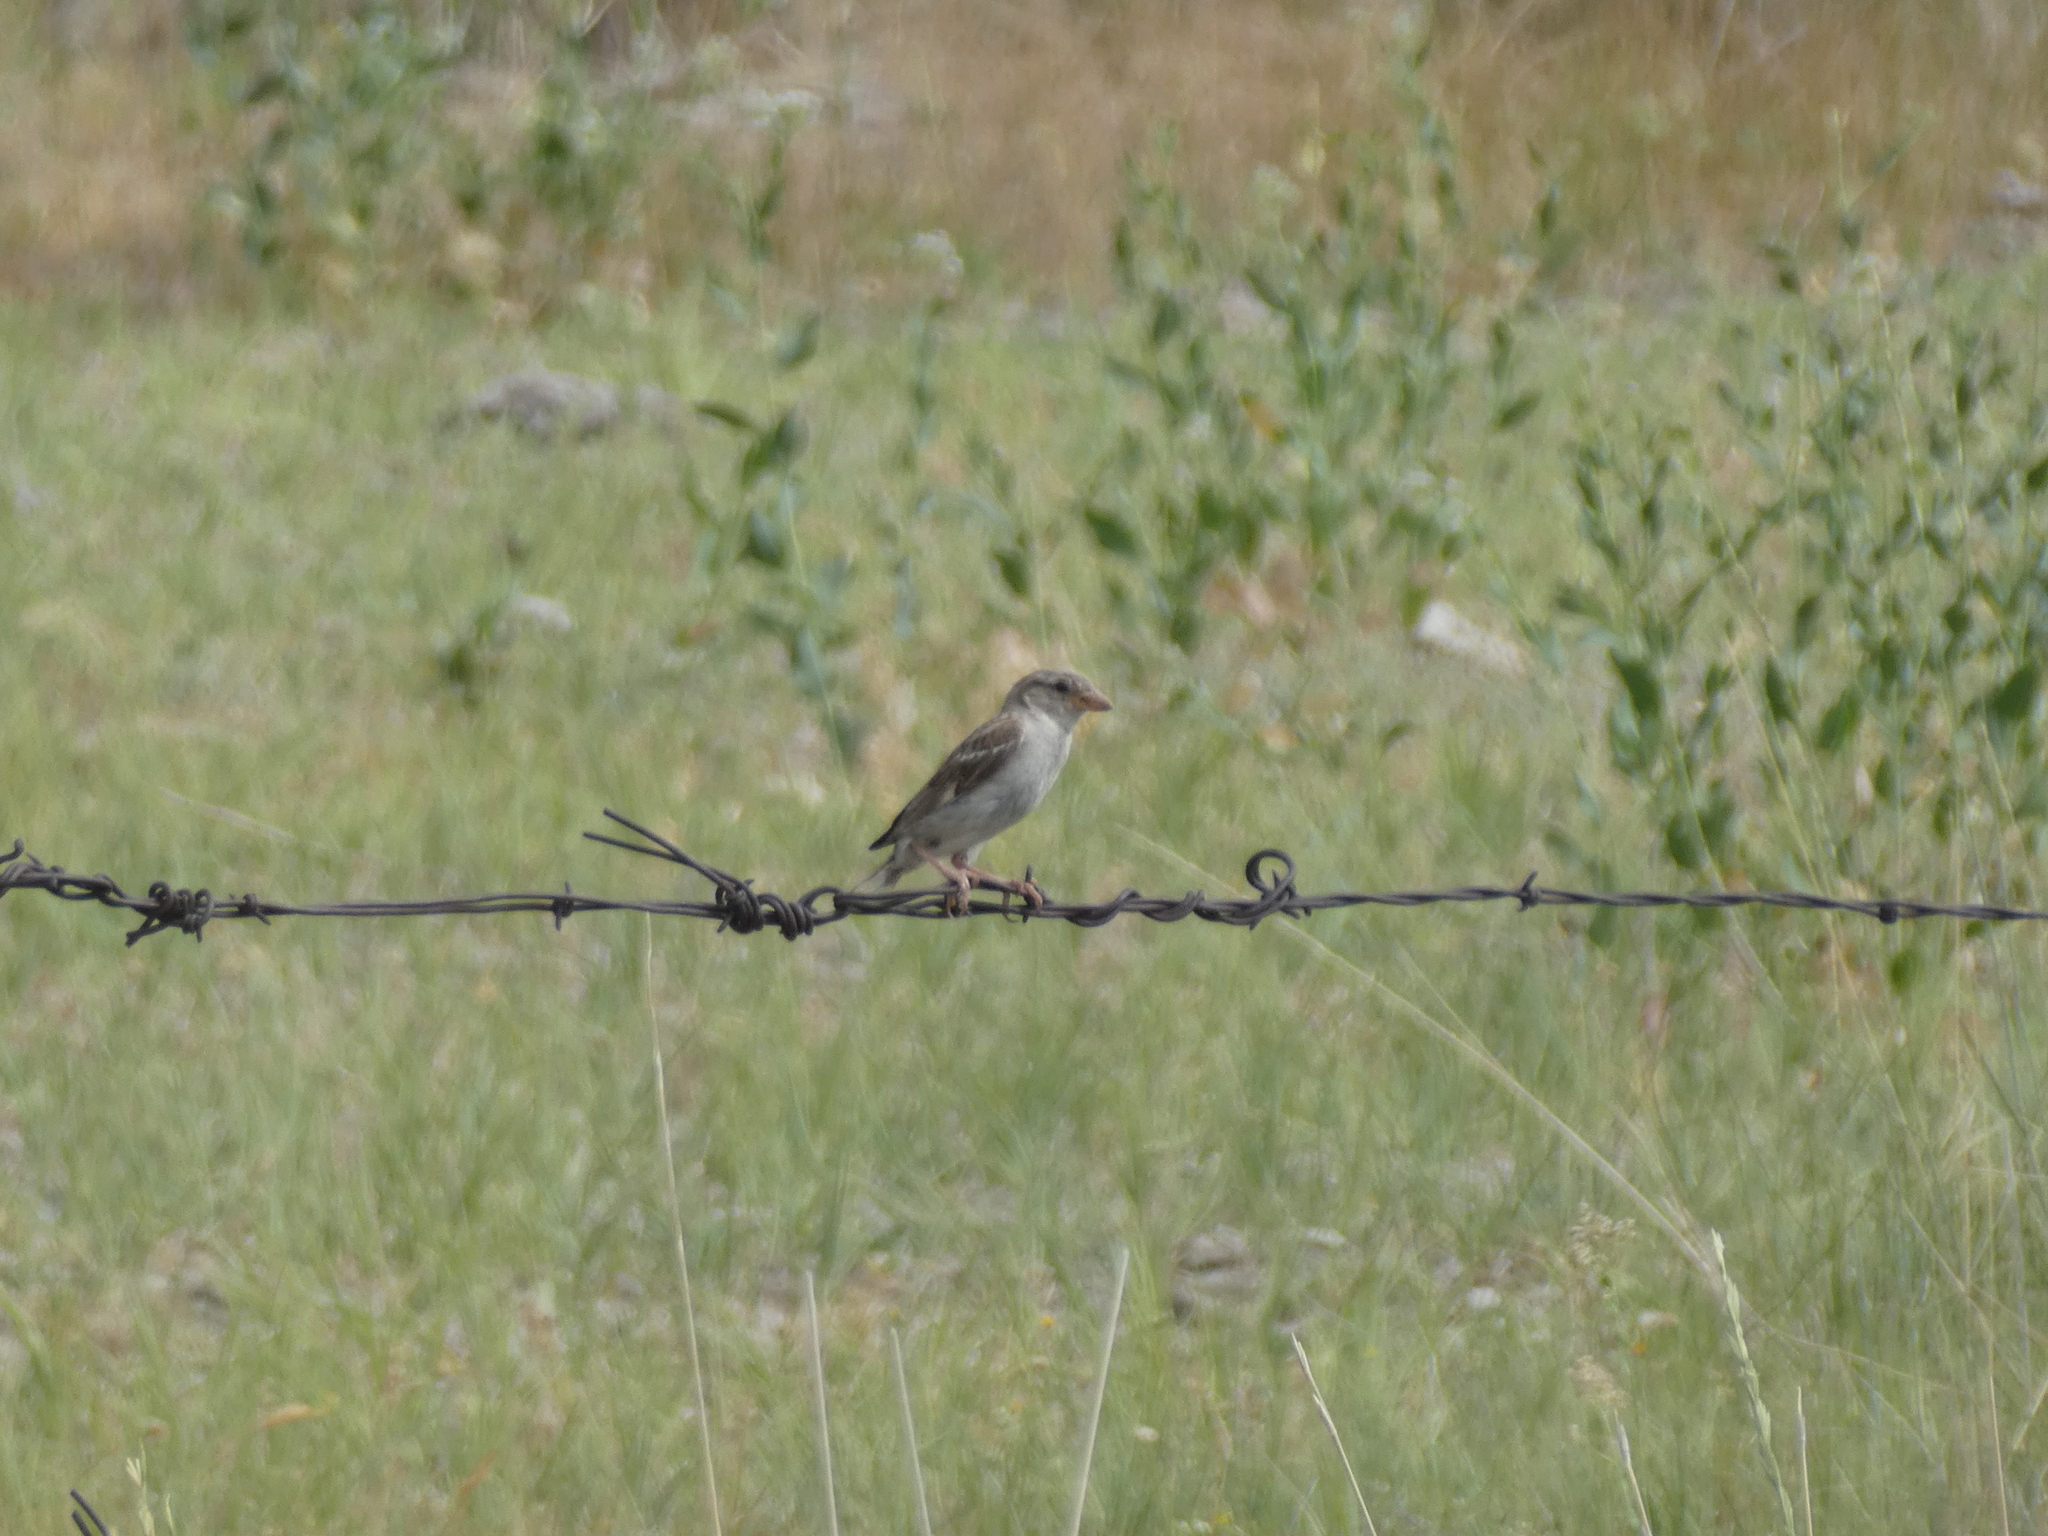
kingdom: Animalia
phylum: Chordata
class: Aves
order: Passeriformes
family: Passeridae
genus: Passer
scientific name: Passer domesticus
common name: House sparrow
